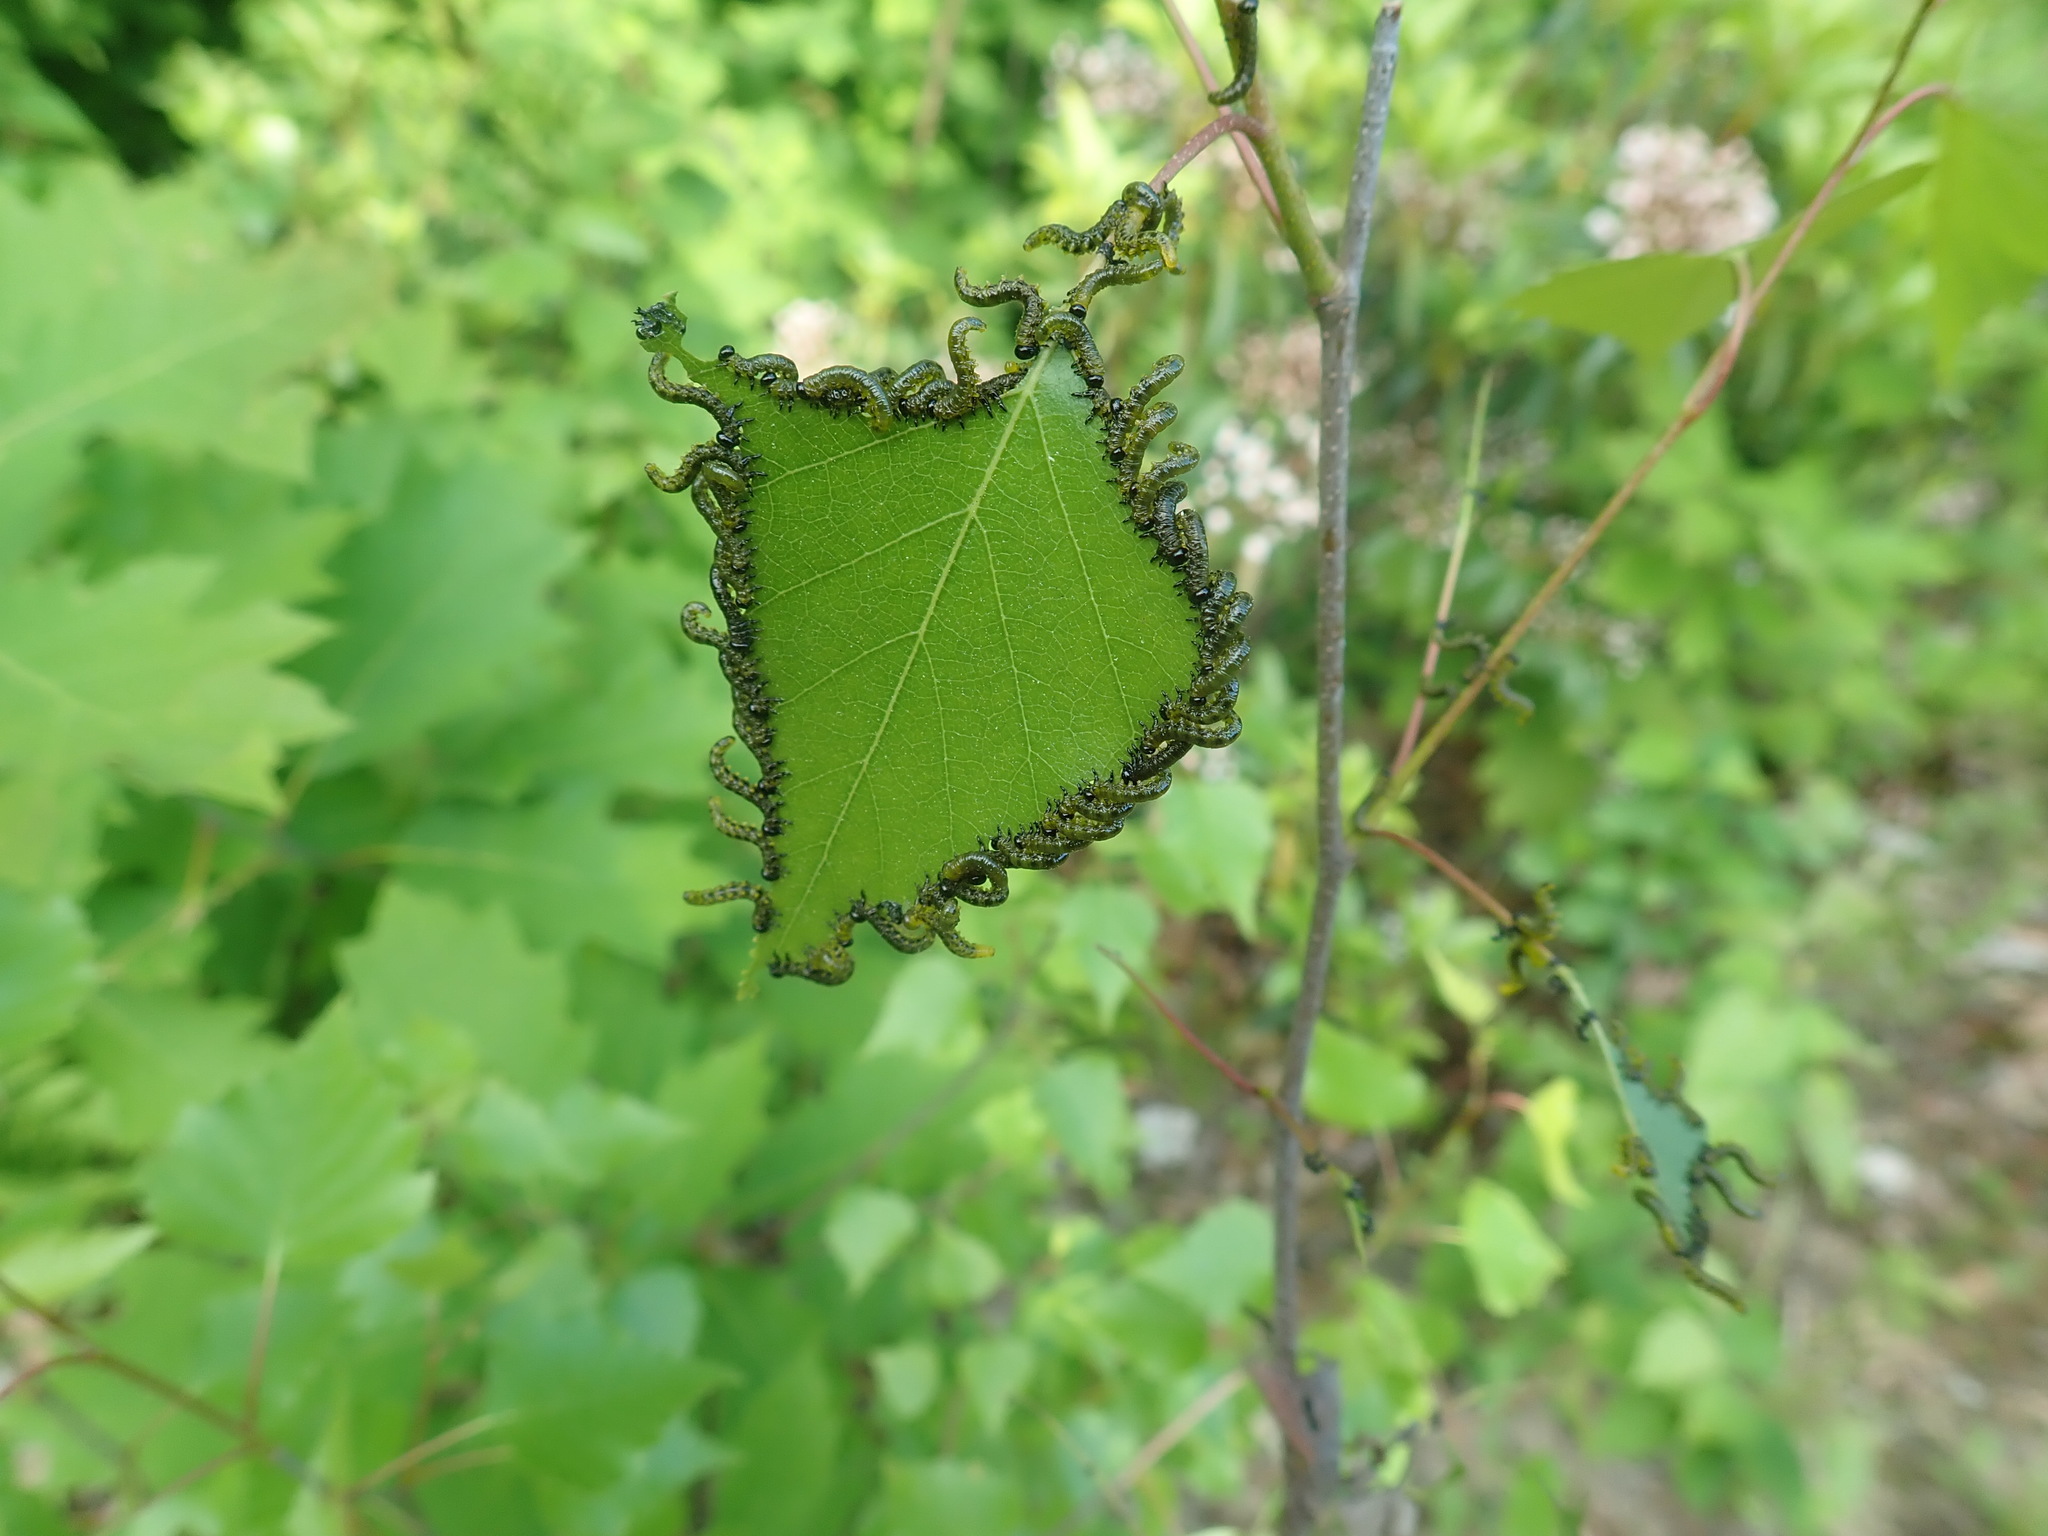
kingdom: Animalia
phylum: Arthropoda
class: Insecta
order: Hymenoptera
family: Tenthredinidae
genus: Nematus
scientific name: Nematus
